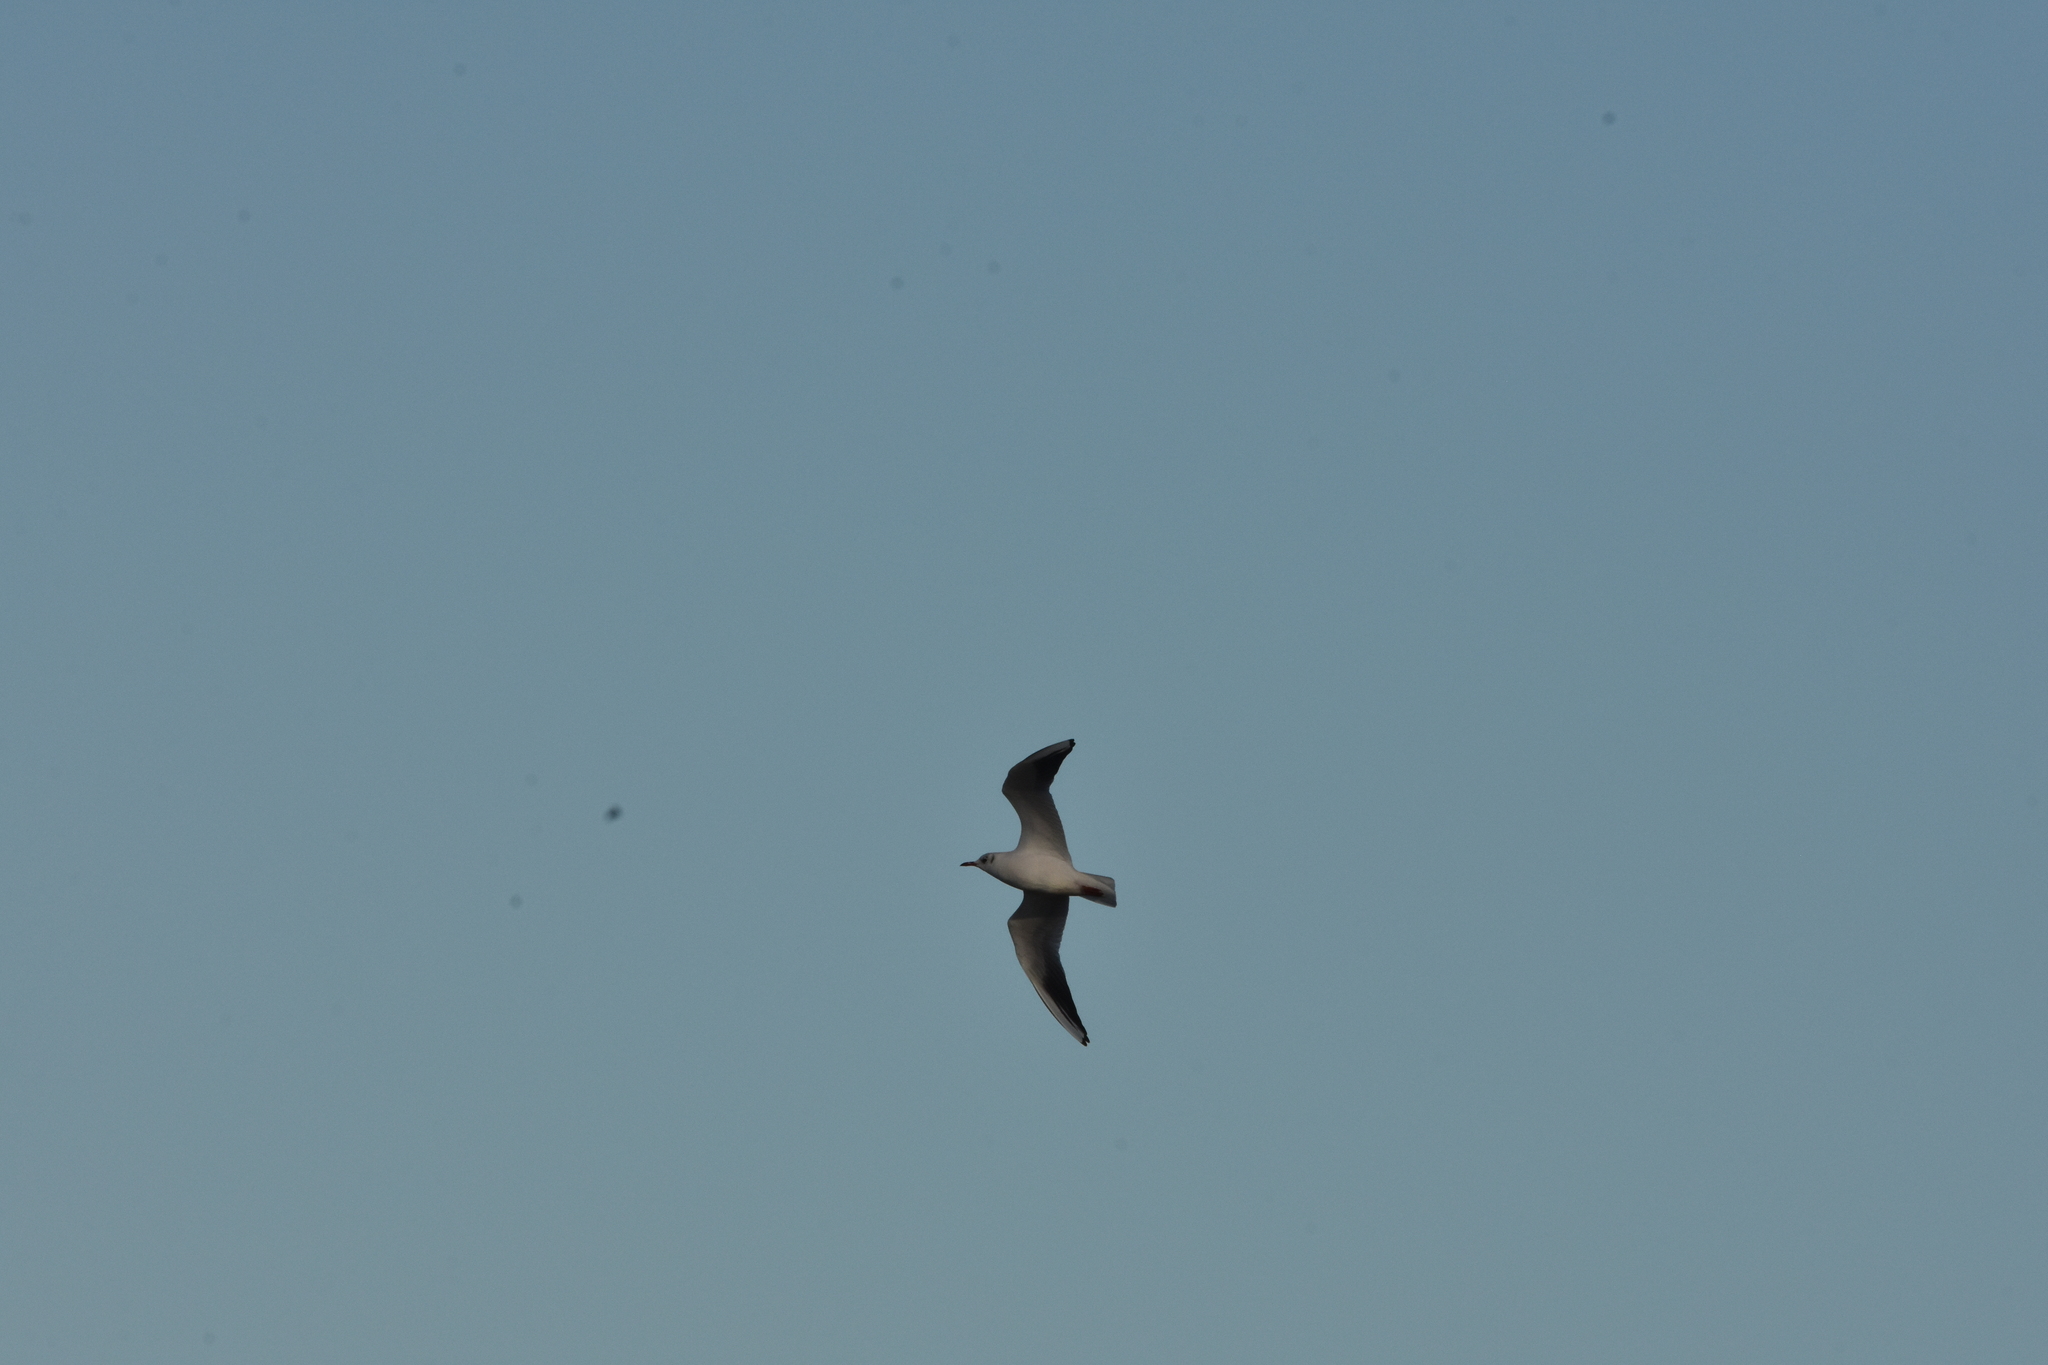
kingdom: Animalia
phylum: Chordata
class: Aves
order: Charadriiformes
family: Laridae
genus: Chroicocephalus
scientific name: Chroicocephalus ridibundus
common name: Black-headed gull
